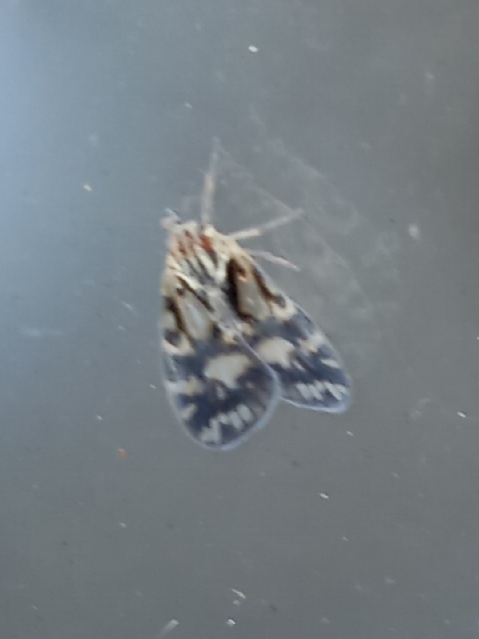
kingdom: Animalia
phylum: Arthropoda
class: Insecta
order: Hemiptera
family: Cixiidae
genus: Bothriocera
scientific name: Bothriocera cognita
